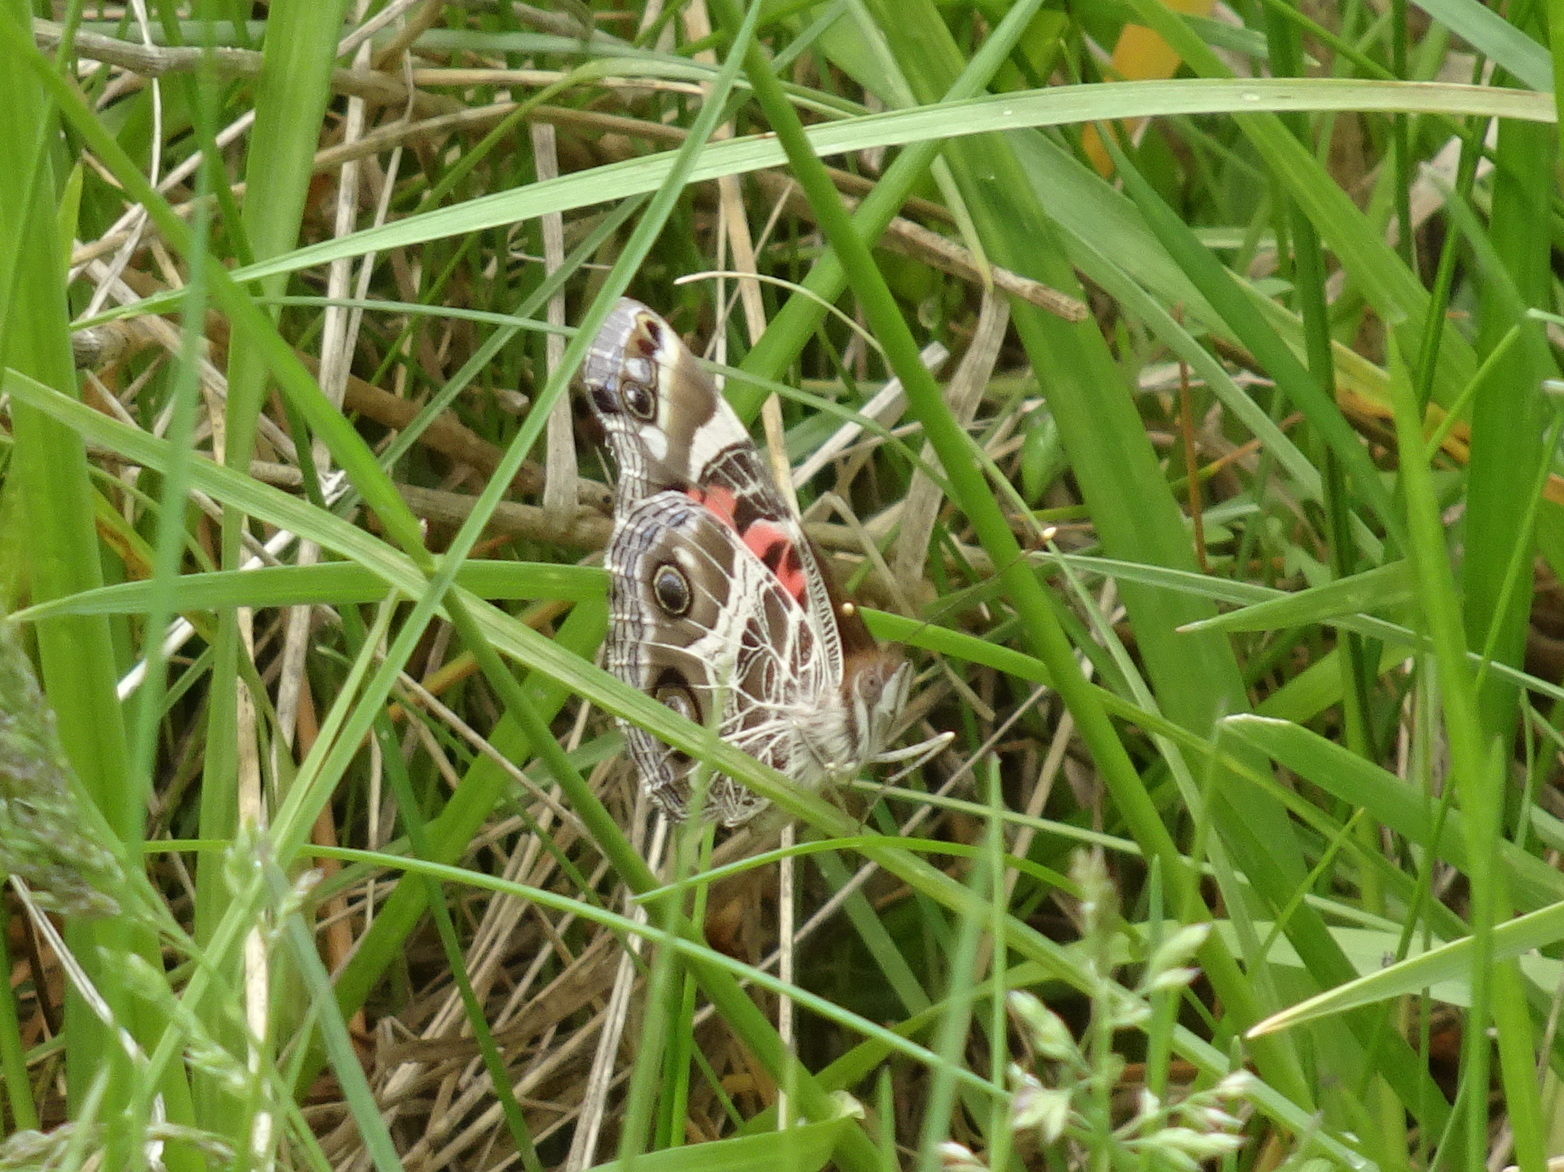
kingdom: Animalia
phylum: Arthropoda
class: Insecta
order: Lepidoptera
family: Nymphalidae
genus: Vanessa
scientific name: Vanessa virginiensis
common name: American lady
